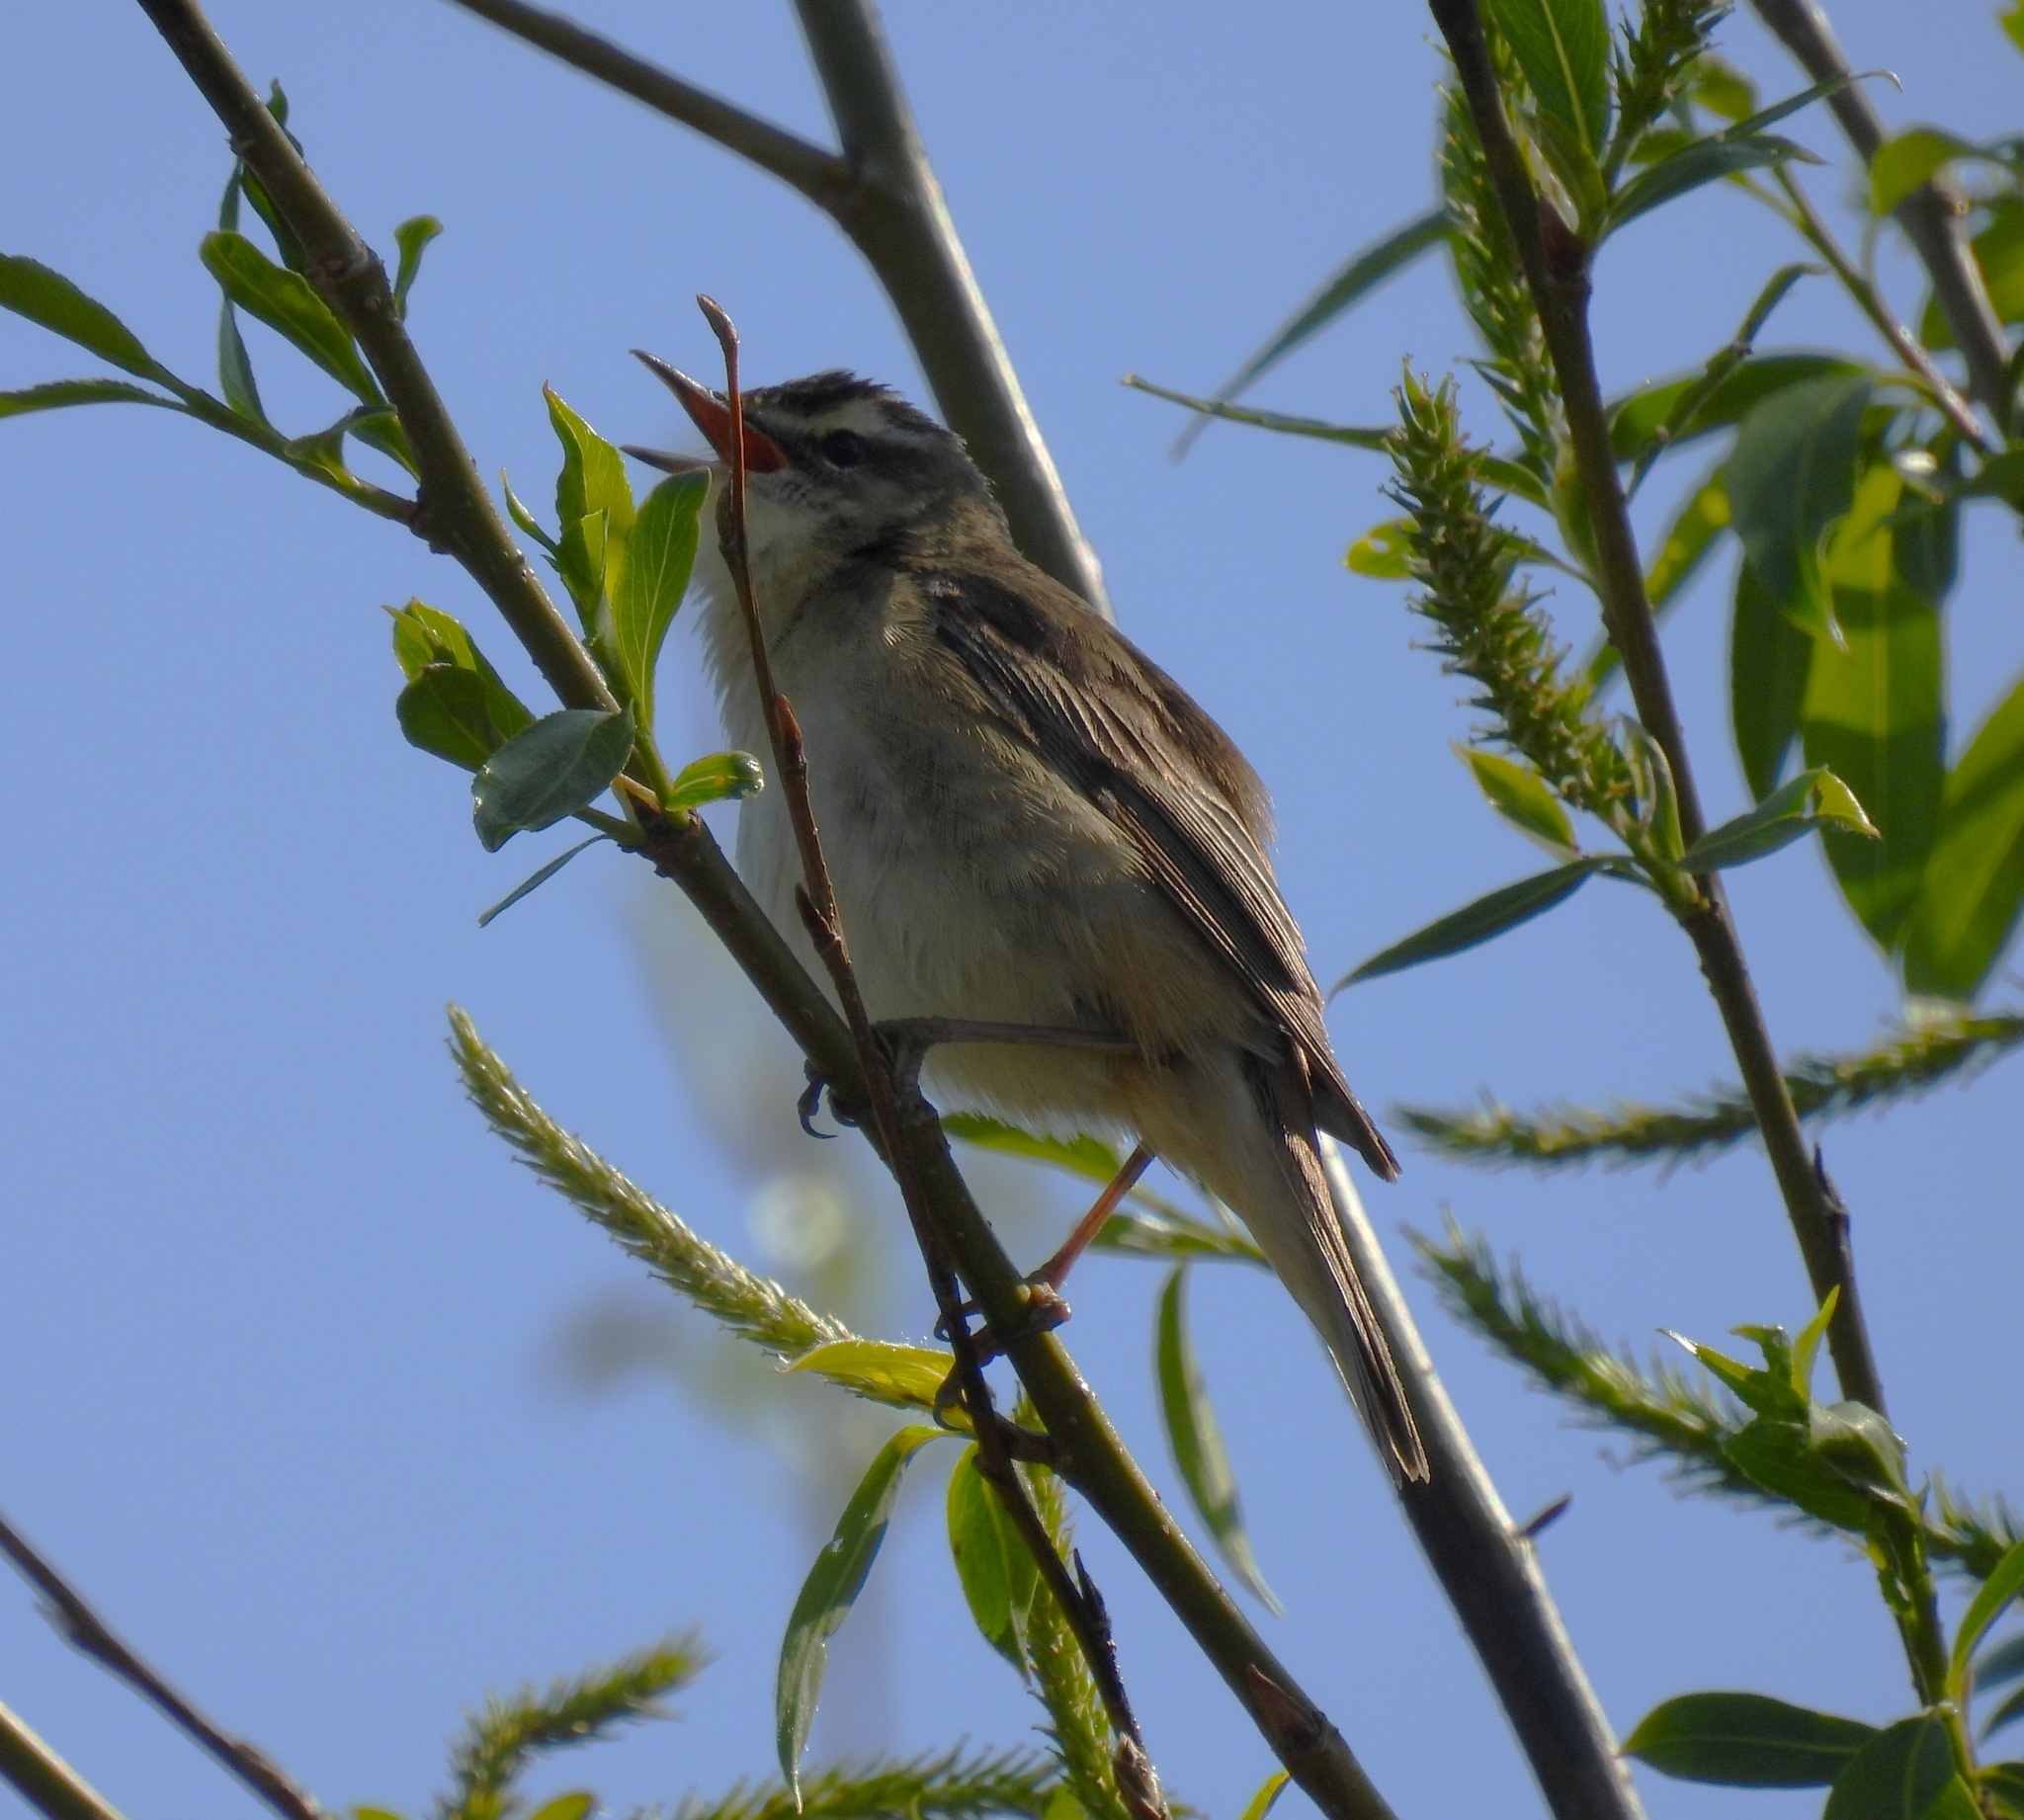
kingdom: Animalia
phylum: Chordata
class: Aves
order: Passeriformes
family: Acrocephalidae
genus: Acrocephalus
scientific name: Acrocephalus schoenobaenus
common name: Sedge warbler
